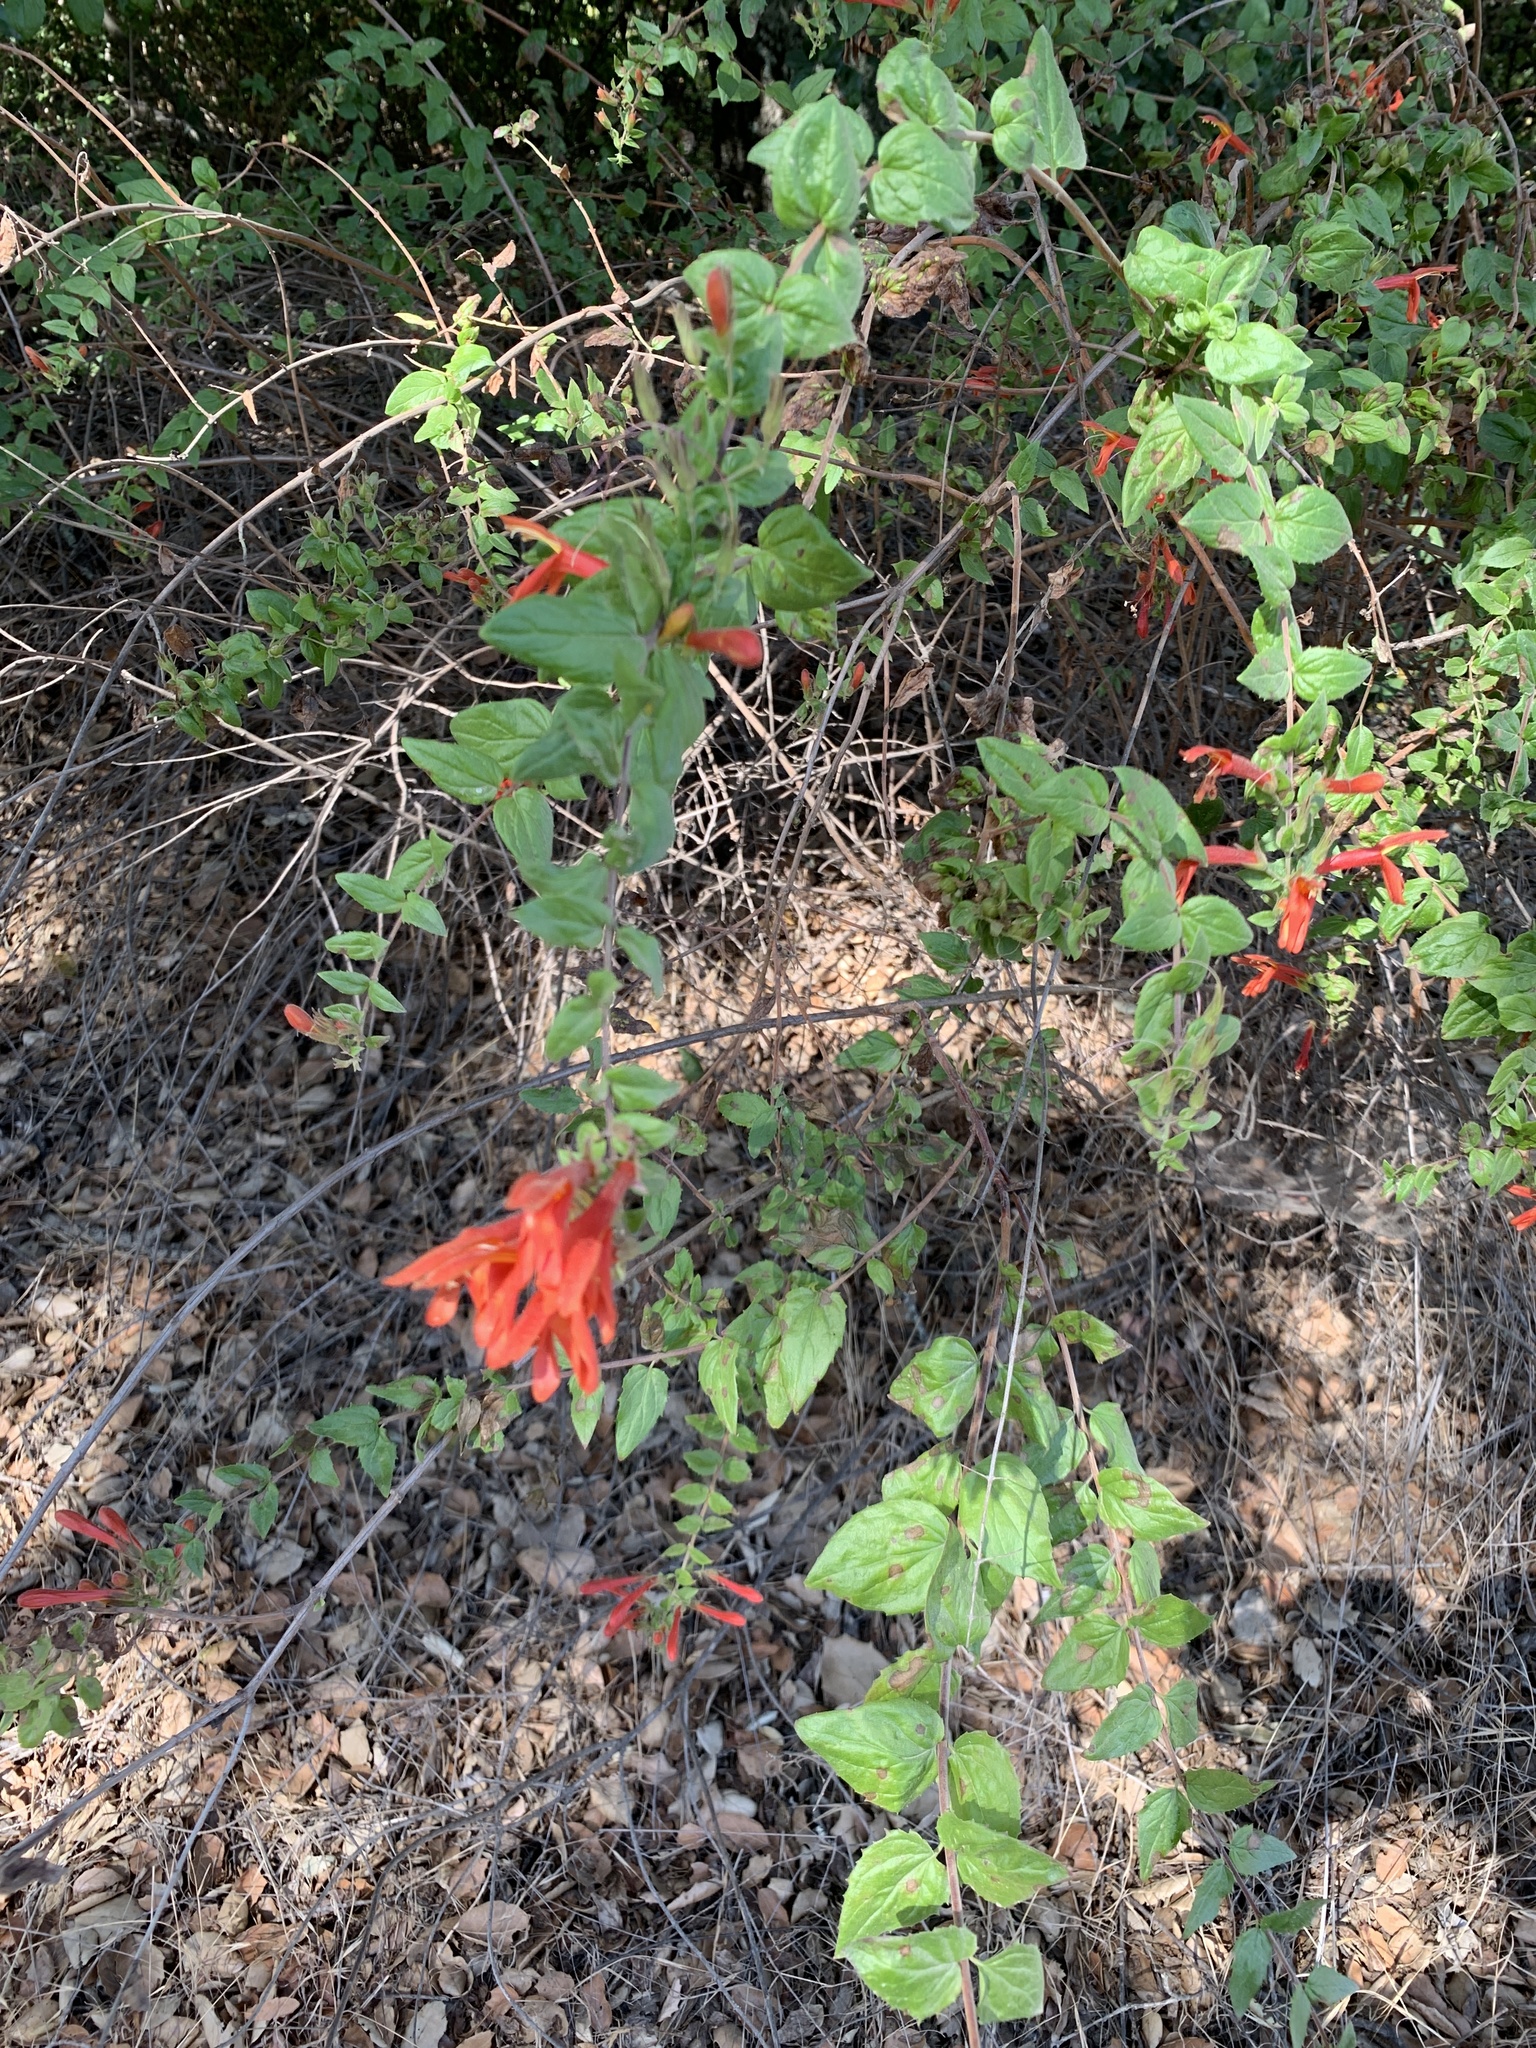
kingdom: Plantae
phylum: Tracheophyta
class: Magnoliopsida
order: Lamiales
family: Plantaginaceae
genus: Keckiella
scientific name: Keckiella cordifolia
